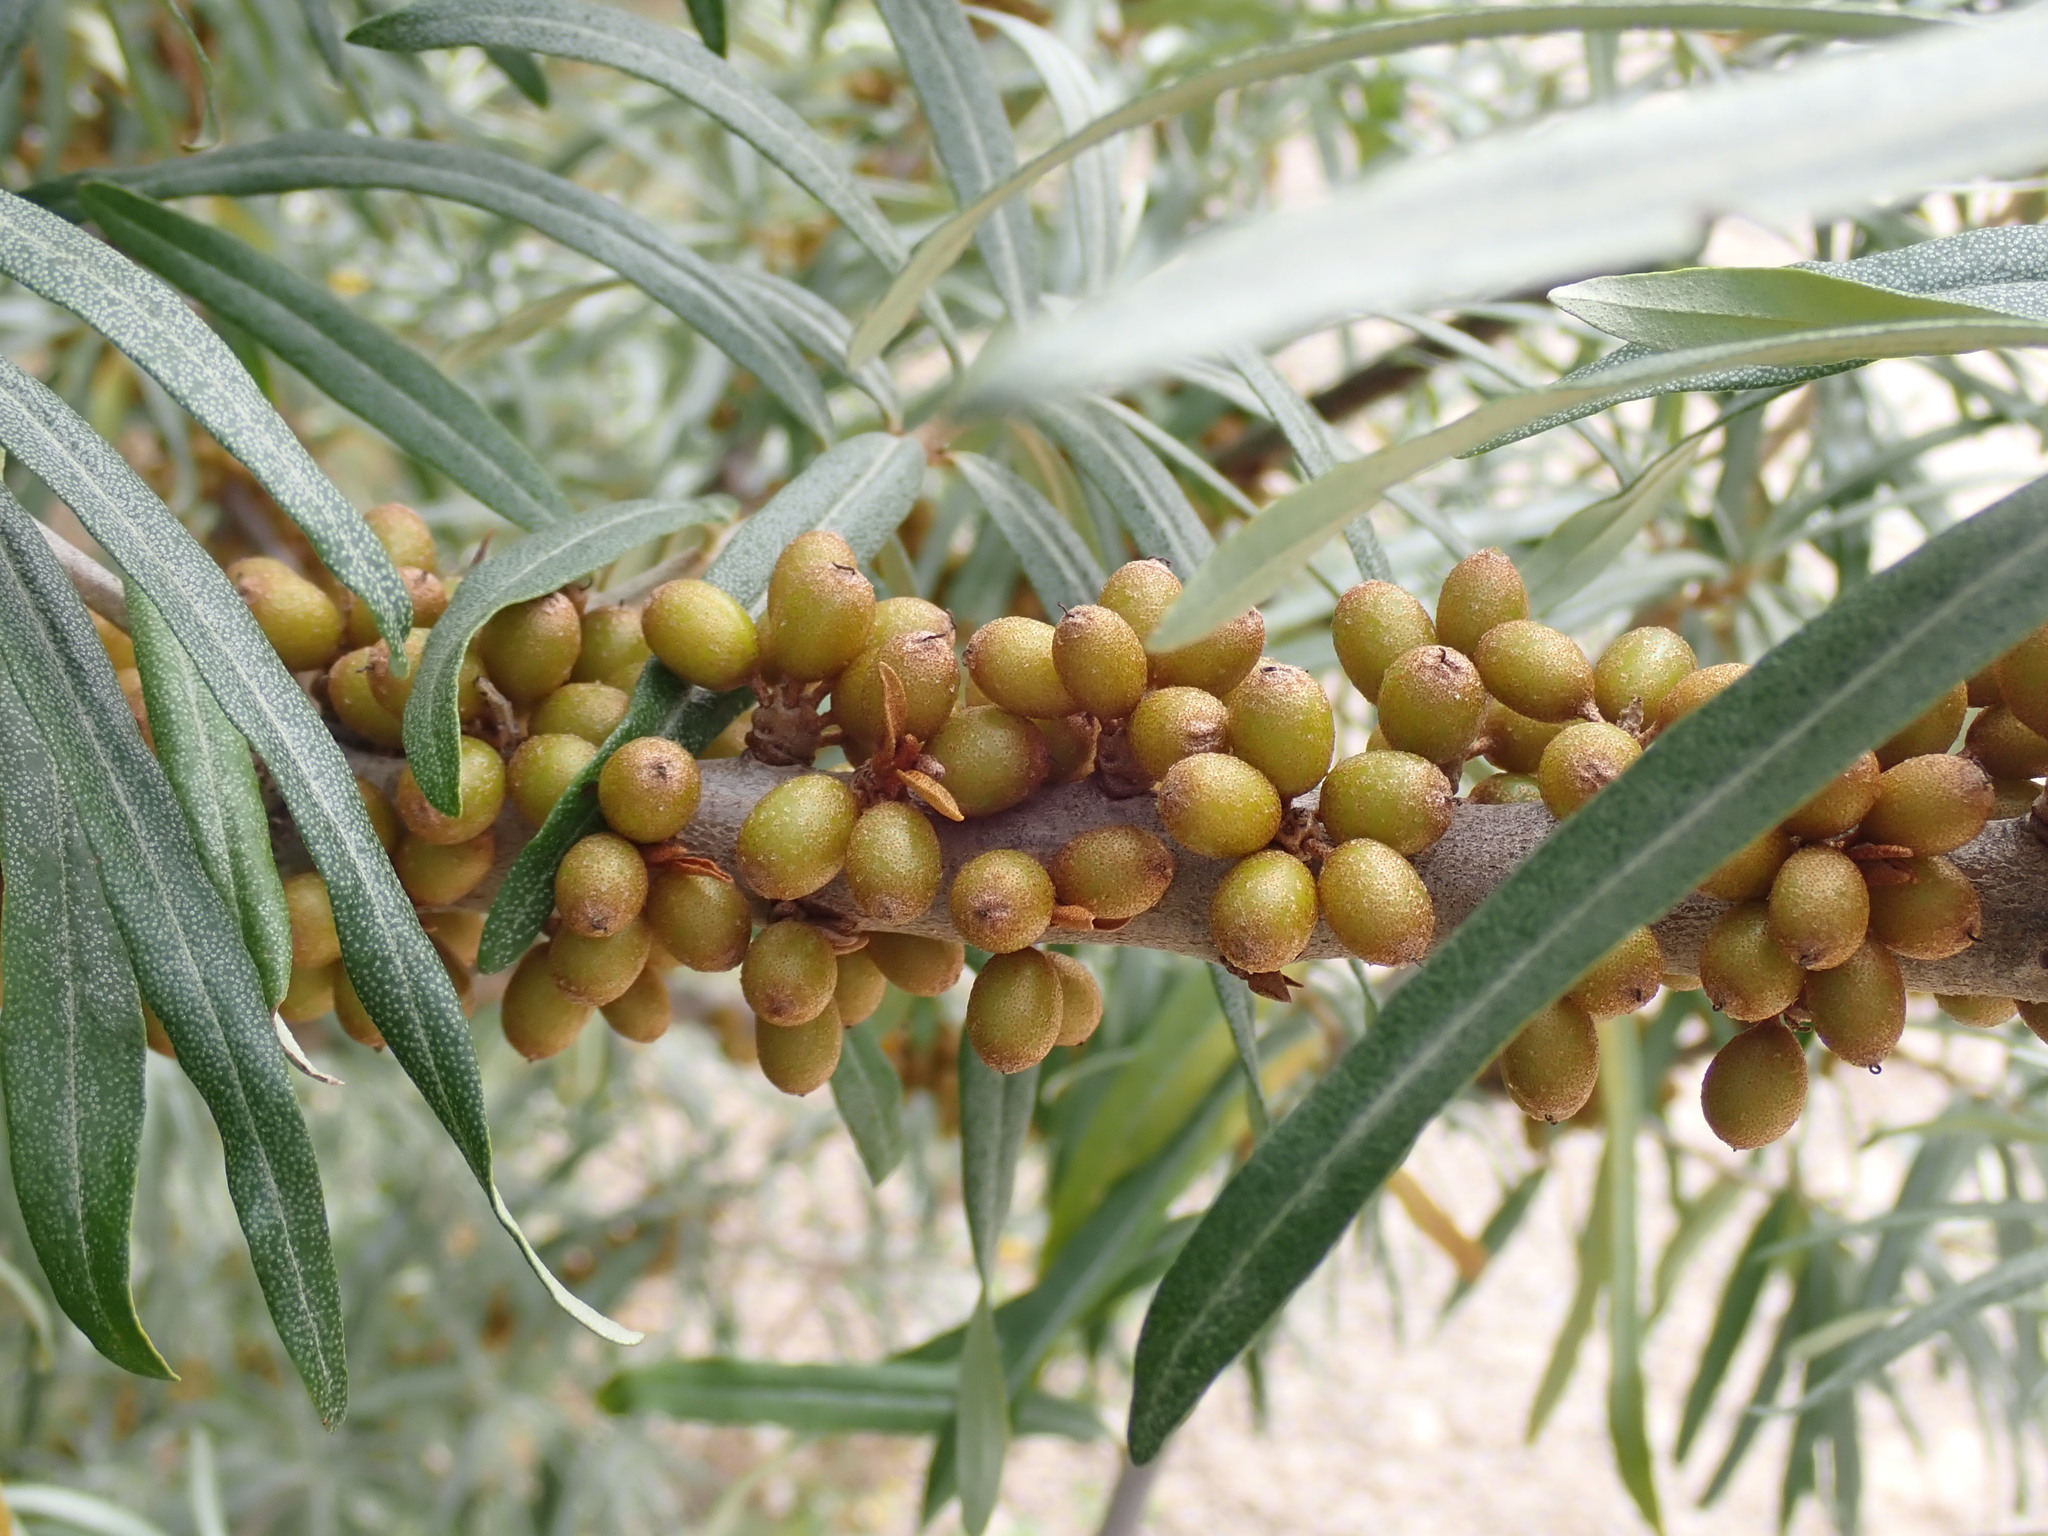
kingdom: Plantae
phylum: Tracheophyta
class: Magnoliopsida
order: Rosales
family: Elaeagnaceae
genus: Hippophae
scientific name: Hippophae rhamnoides
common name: Sea-buckthorn
